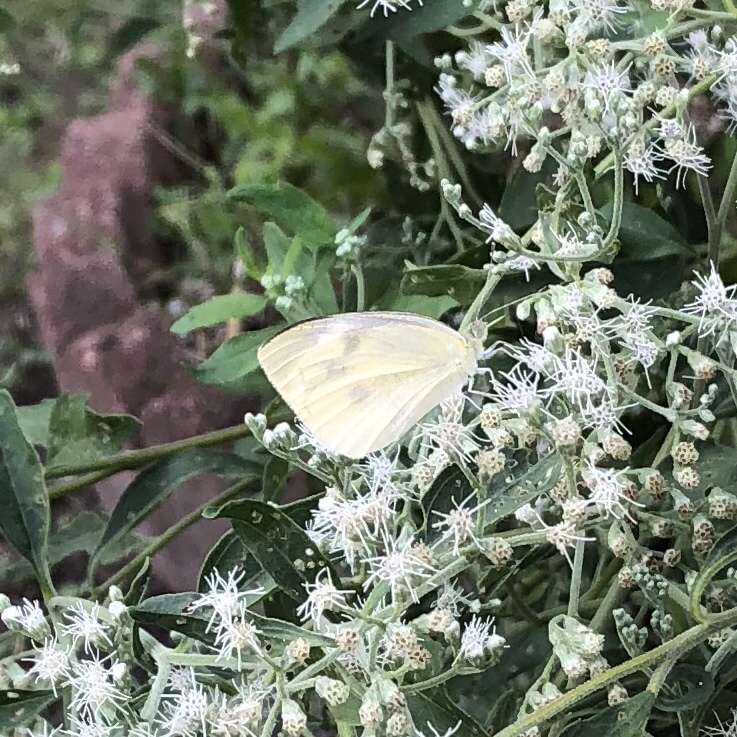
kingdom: Animalia
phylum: Arthropoda
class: Insecta
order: Lepidoptera
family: Pieridae
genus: Pieris
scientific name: Pieris rapae
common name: Small white
